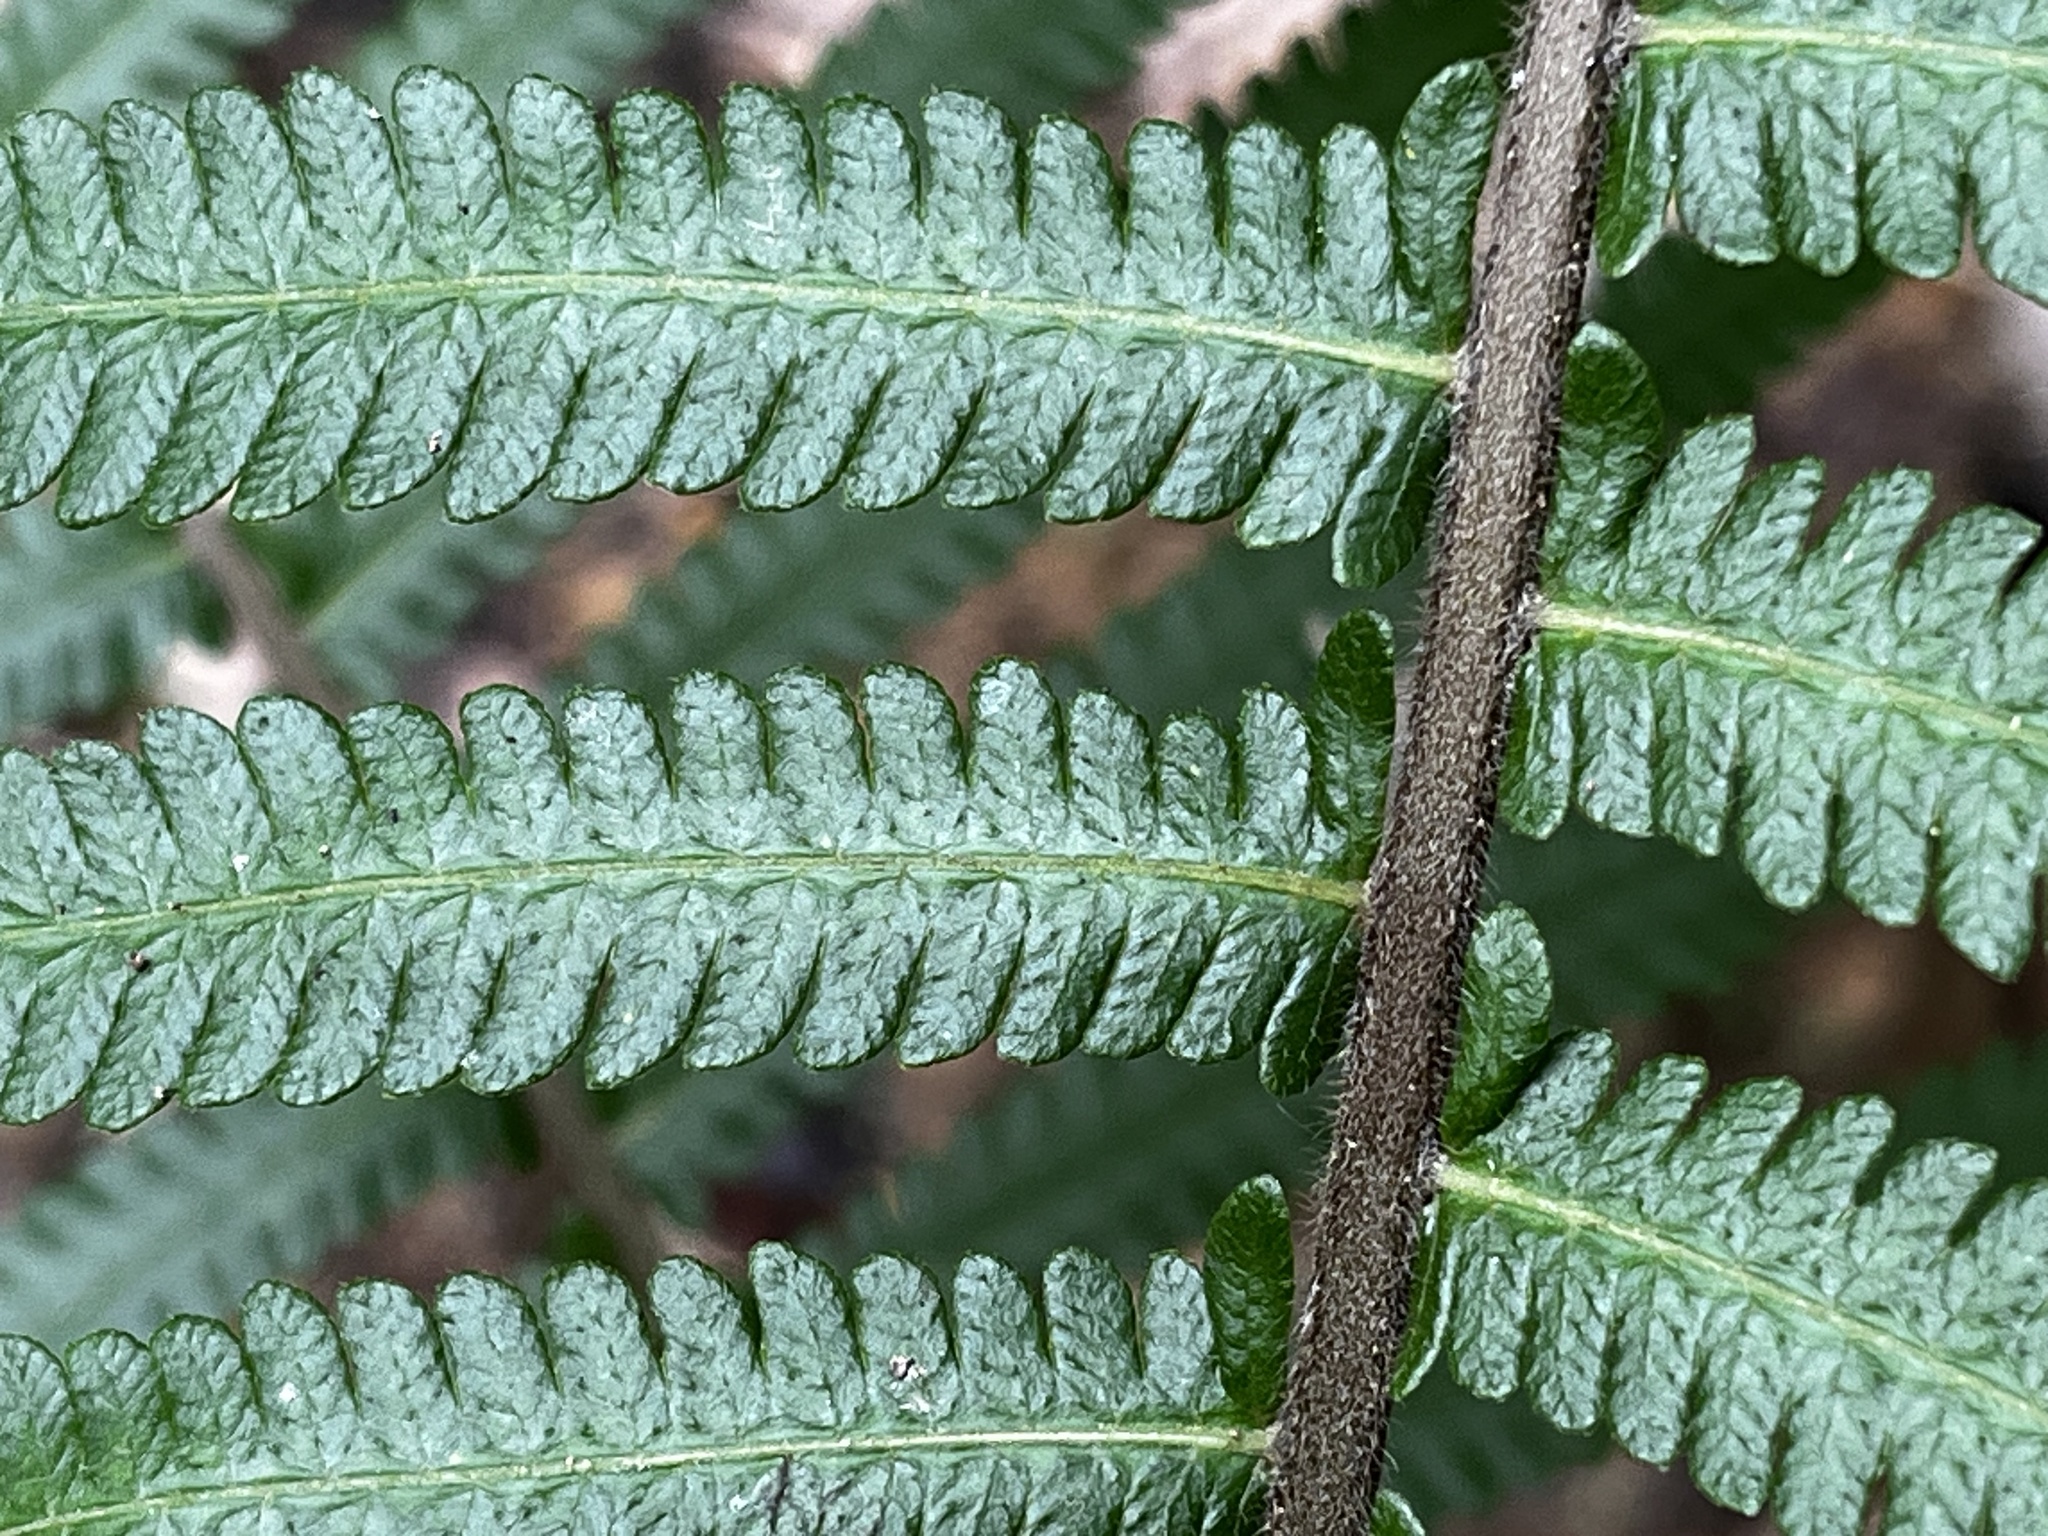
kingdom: Plantae
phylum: Tracheophyta
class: Polypodiopsida
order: Polypodiales
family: Thelypteridaceae
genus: Sphaerostephanos
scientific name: Sphaerostephanos taiwanensis
